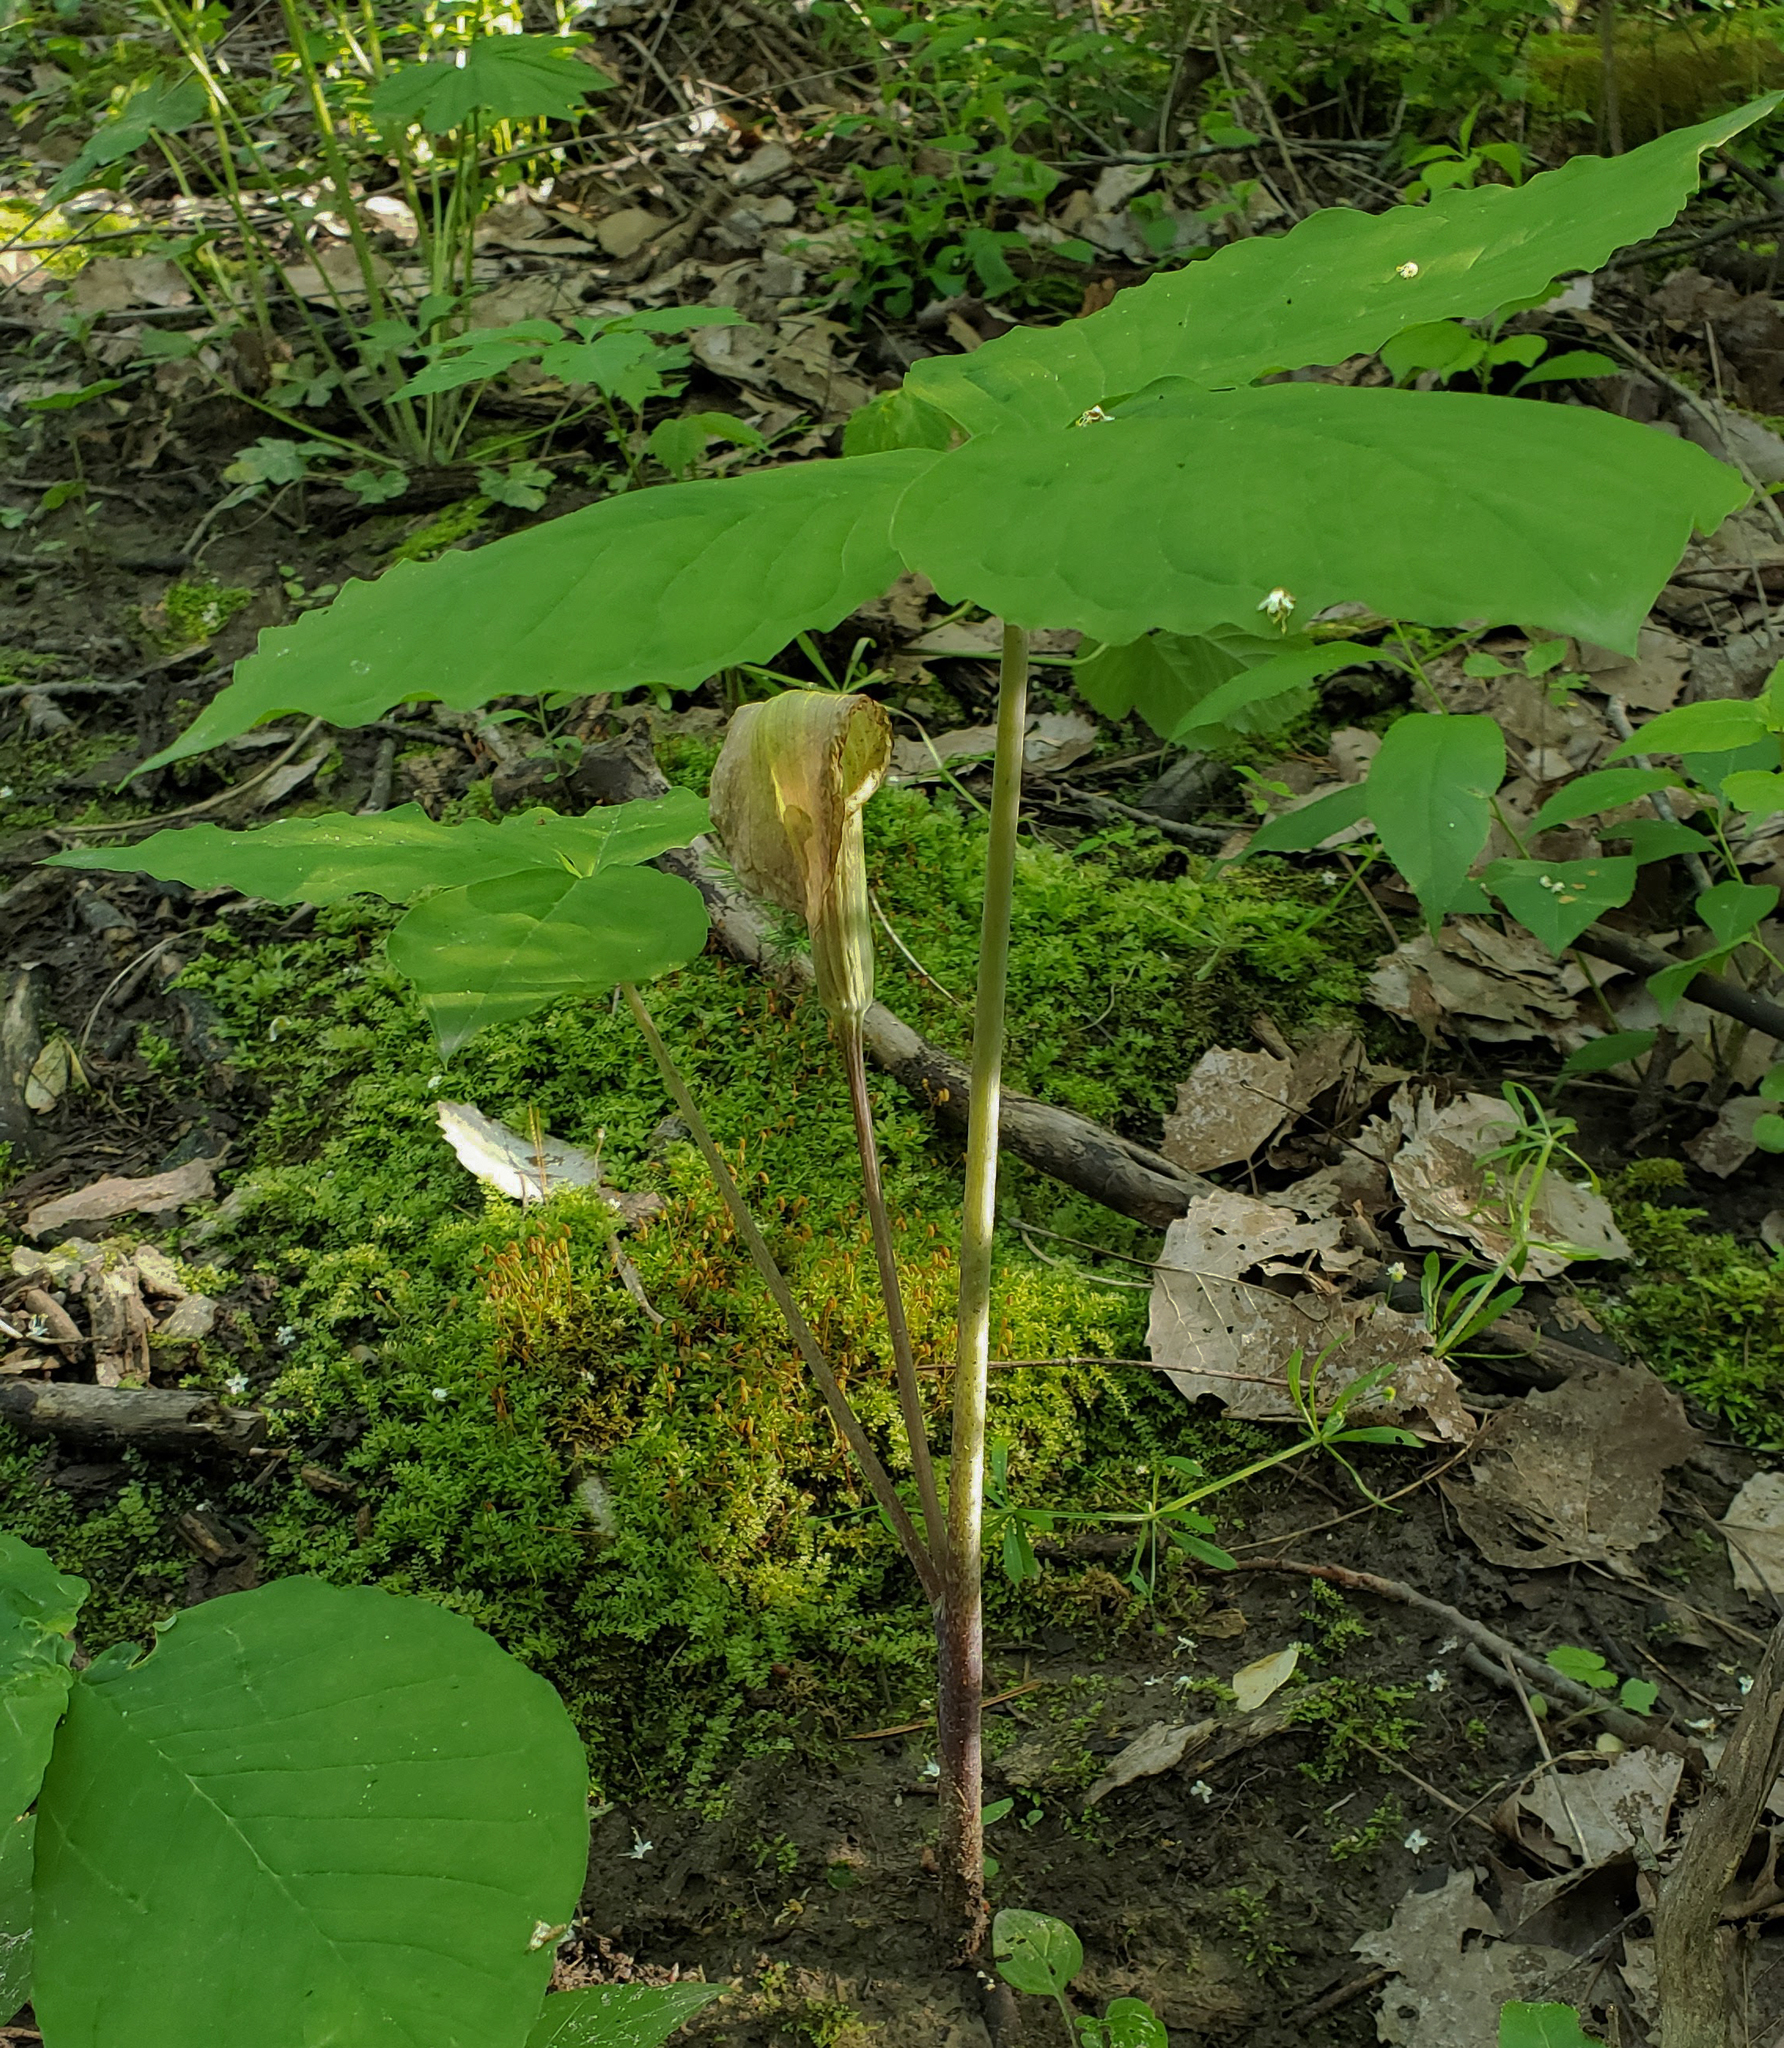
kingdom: Plantae
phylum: Tracheophyta
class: Liliopsida
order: Alismatales
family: Araceae
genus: Arisaema
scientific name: Arisaema triphyllum
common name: Jack-in-the-pulpit
